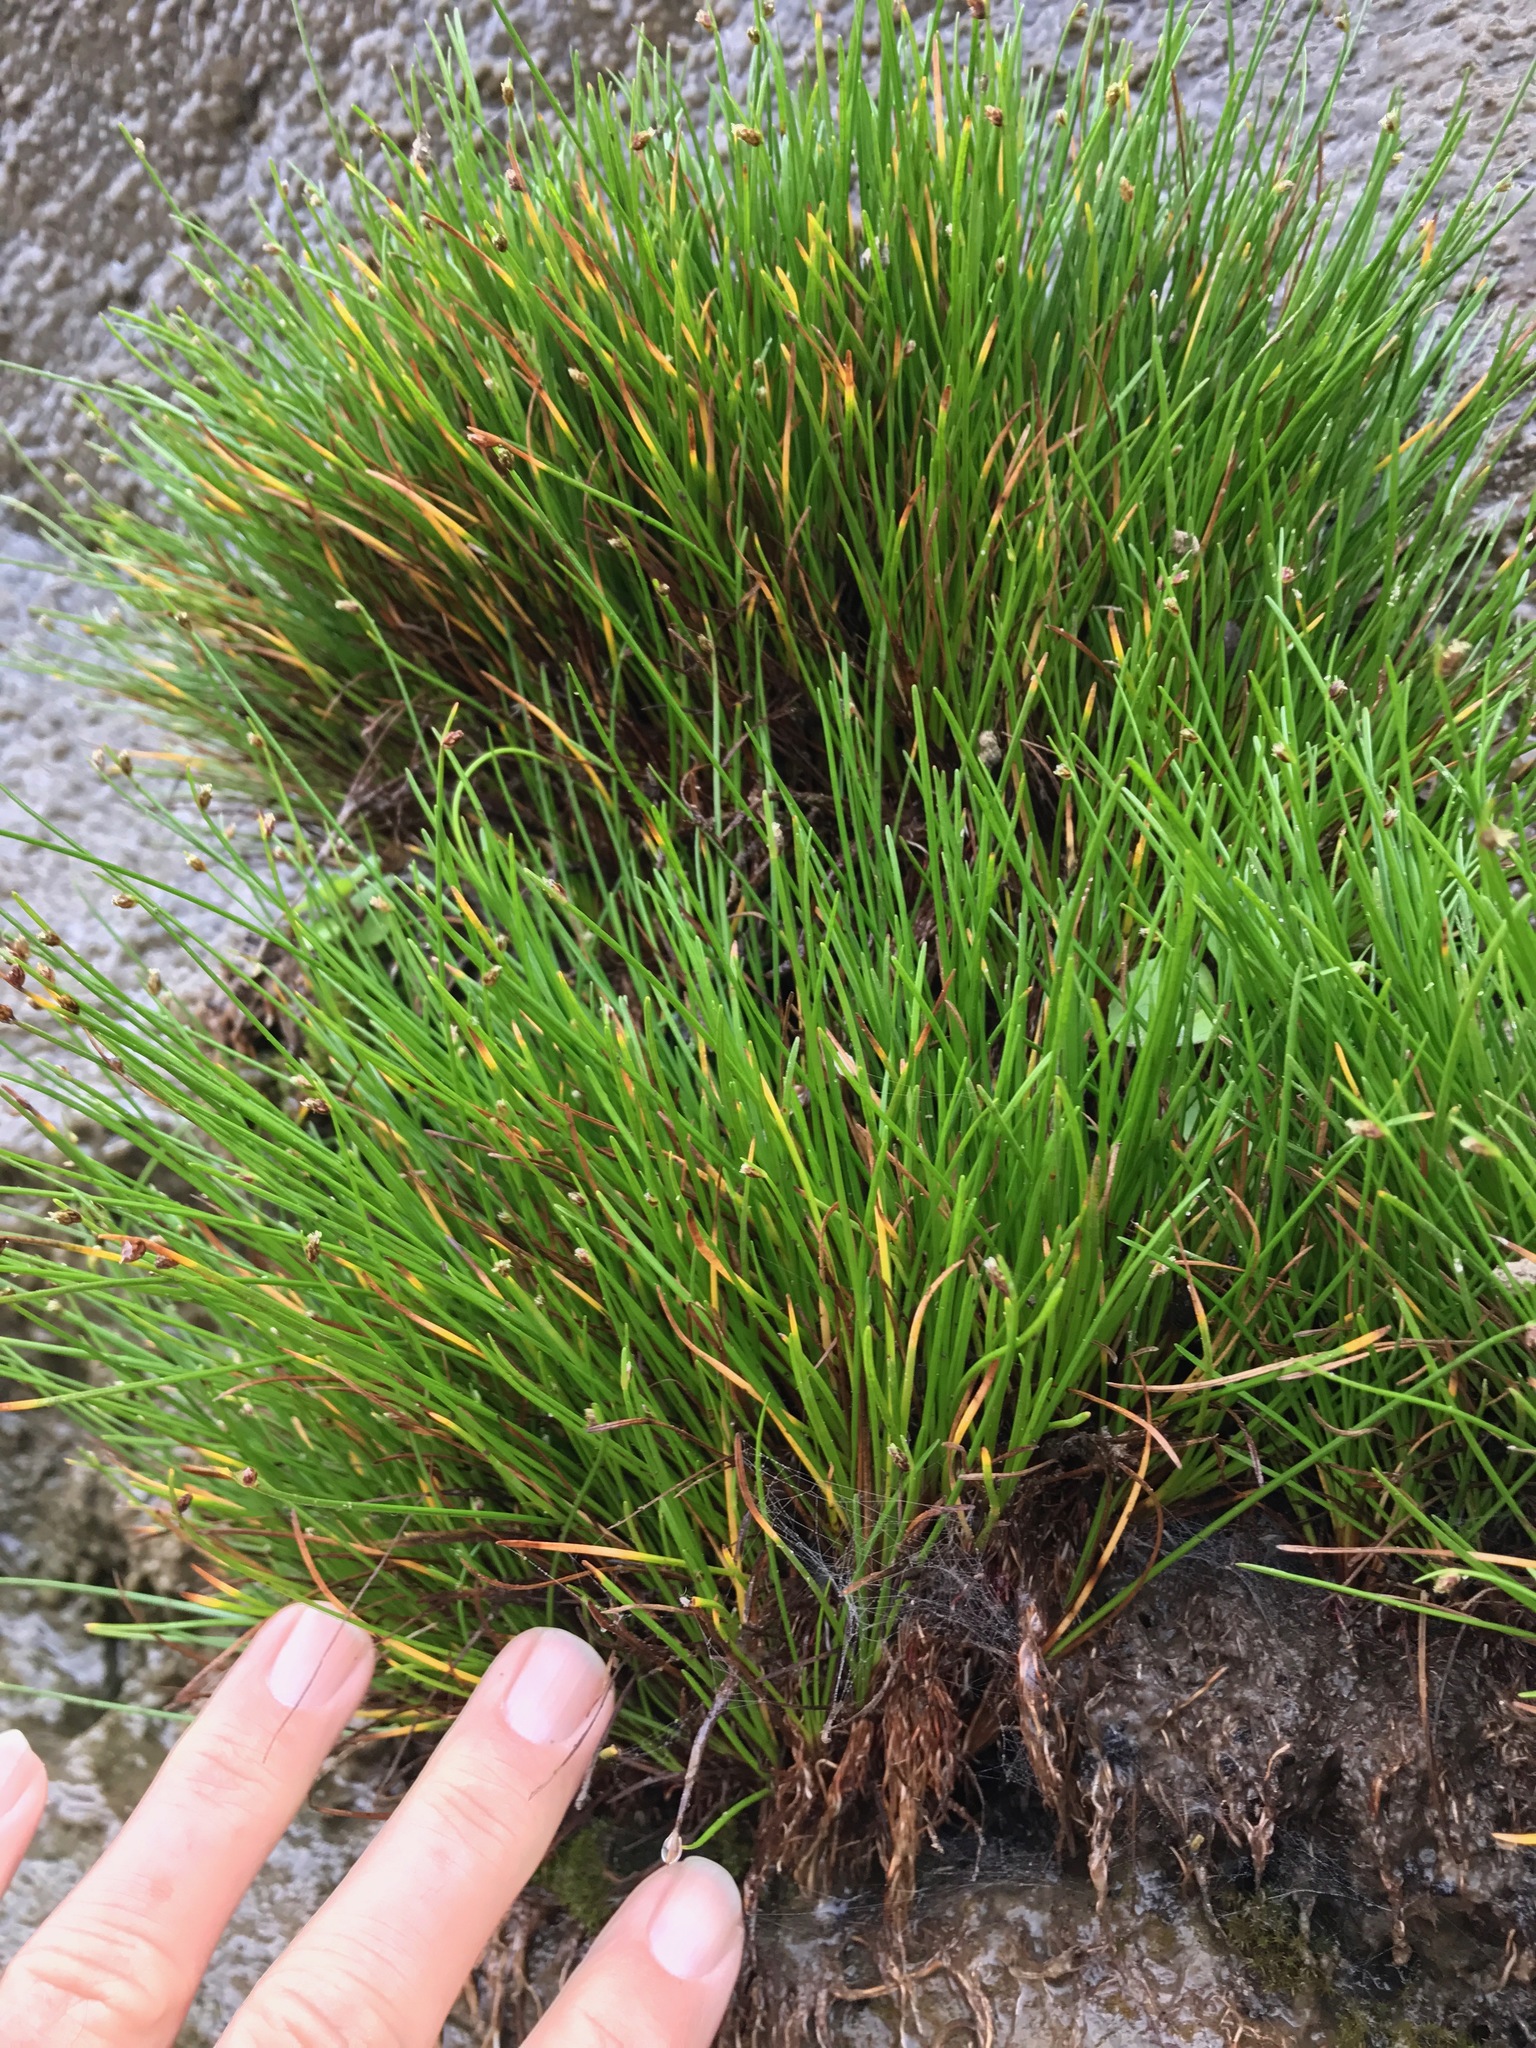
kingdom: Plantae
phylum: Tracheophyta
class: Liliopsida
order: Poales
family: Cyperaceae
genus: Isolepis
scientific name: Isolepis cernua
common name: Slender club-rush
